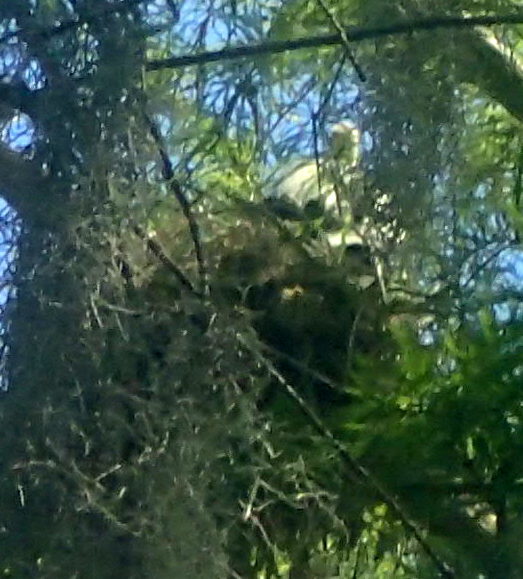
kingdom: Animalia
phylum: Chordata
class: Aves
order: Suliformes
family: Anhingidae
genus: Anhinga
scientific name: Anhinga anhinga
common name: Anhinga
